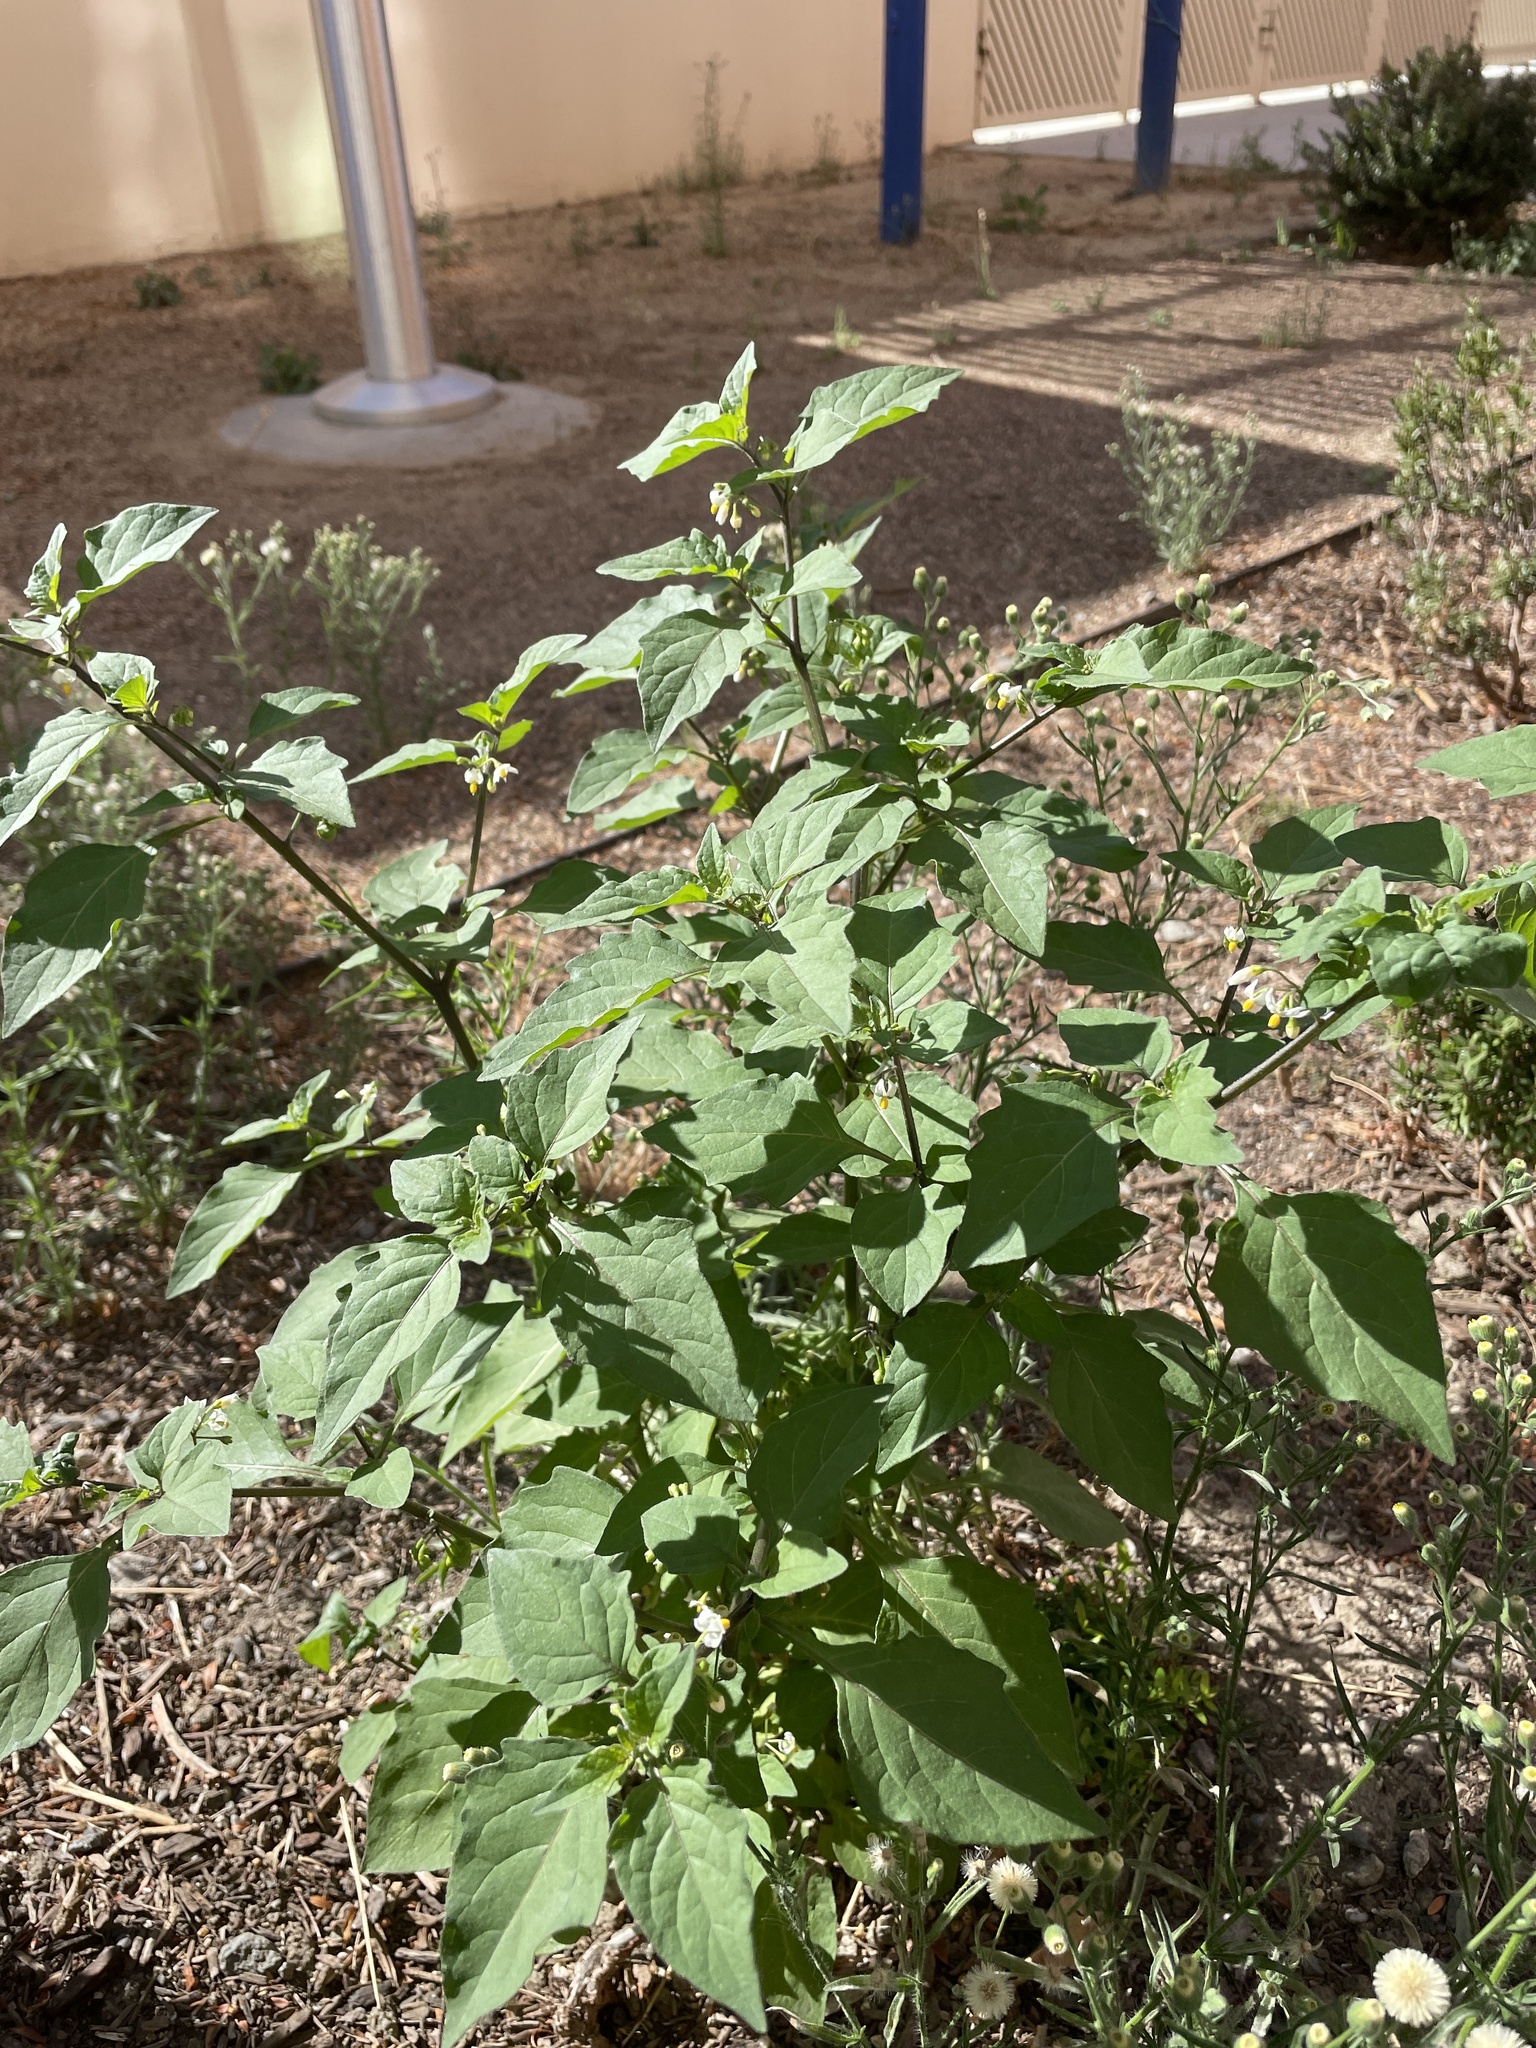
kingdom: Plantae
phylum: Tracheophyta
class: Magnoliopsida
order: Solanales
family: Solanaceae
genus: Solanum
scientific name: Solanum nigrum
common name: Black nightshade
